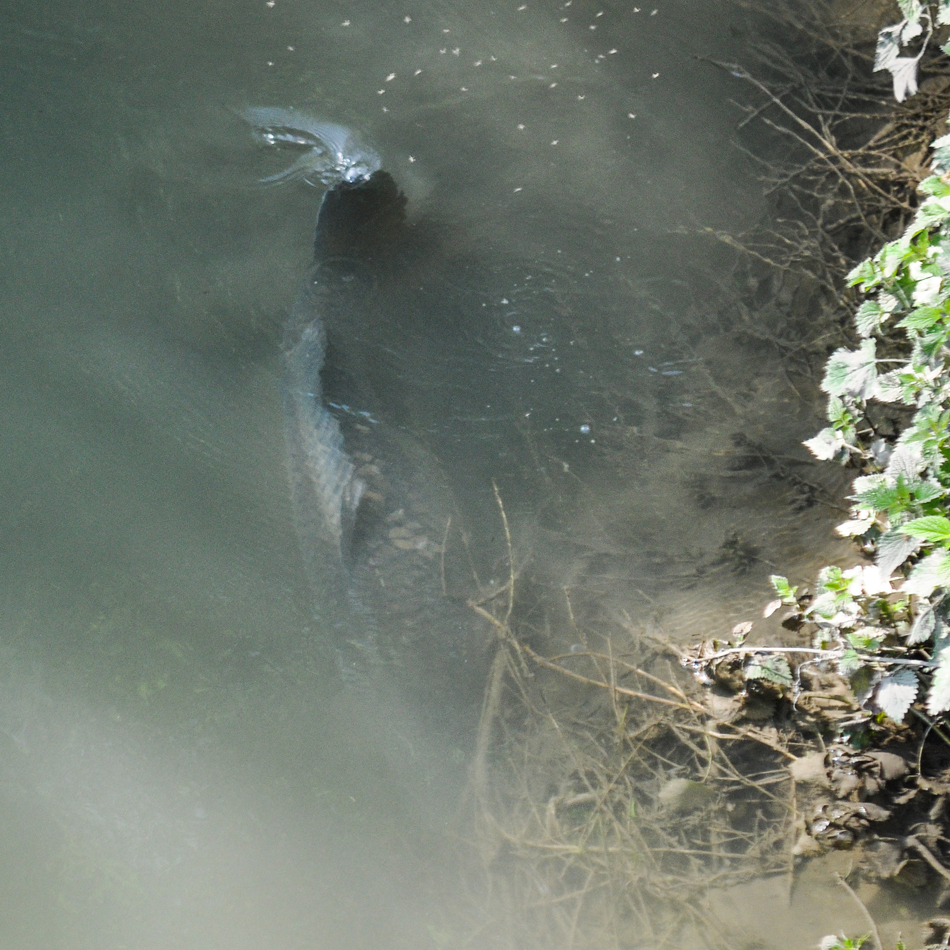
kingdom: Animalia
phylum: Chordata
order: Cypriniformes
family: Cyprinidae
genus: Cyprinus
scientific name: Cyprinus carpio
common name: Common carp
